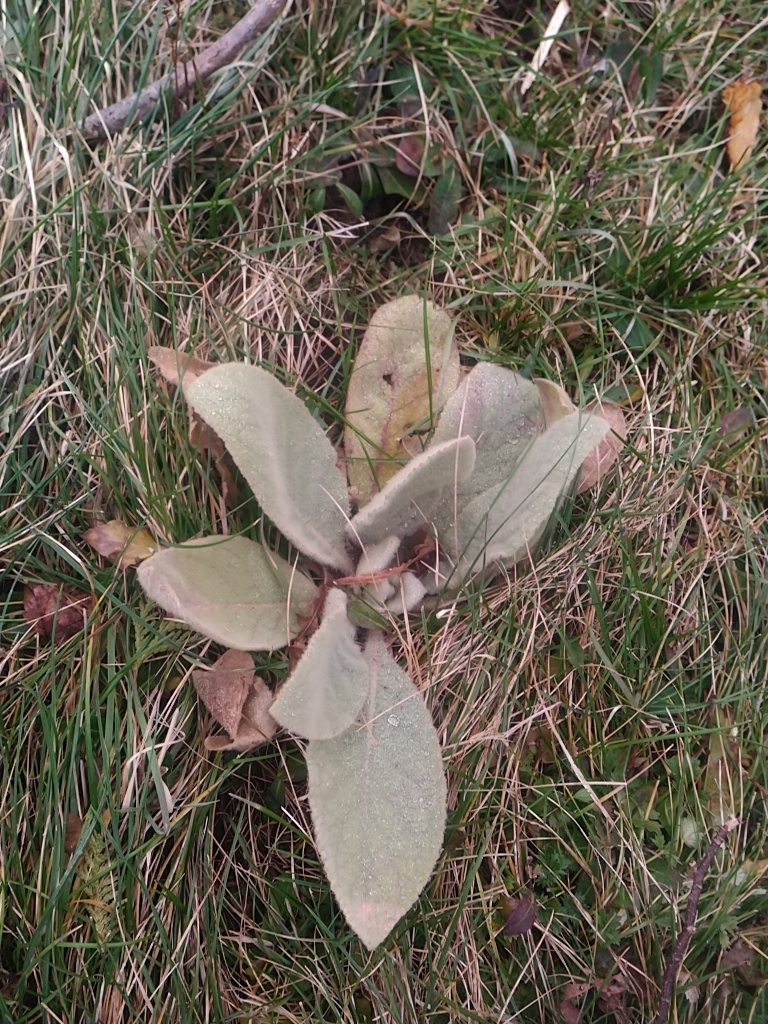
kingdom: Plantae
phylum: Tracheophyta
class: Magnoliopsida
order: Lamiales
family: Scrophulariaceae
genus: Verbascum
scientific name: Verbascum thapsus
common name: Common mullein
